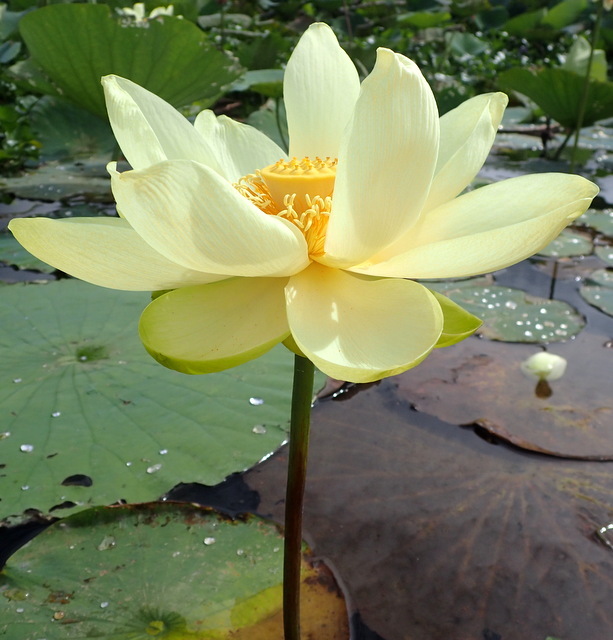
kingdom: Plantae
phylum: Tracheophyta
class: Magnoliopsida
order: Proteales
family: Nelumbonaceae
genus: Nelumbo
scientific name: Nelumbo lutea
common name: American lotus
